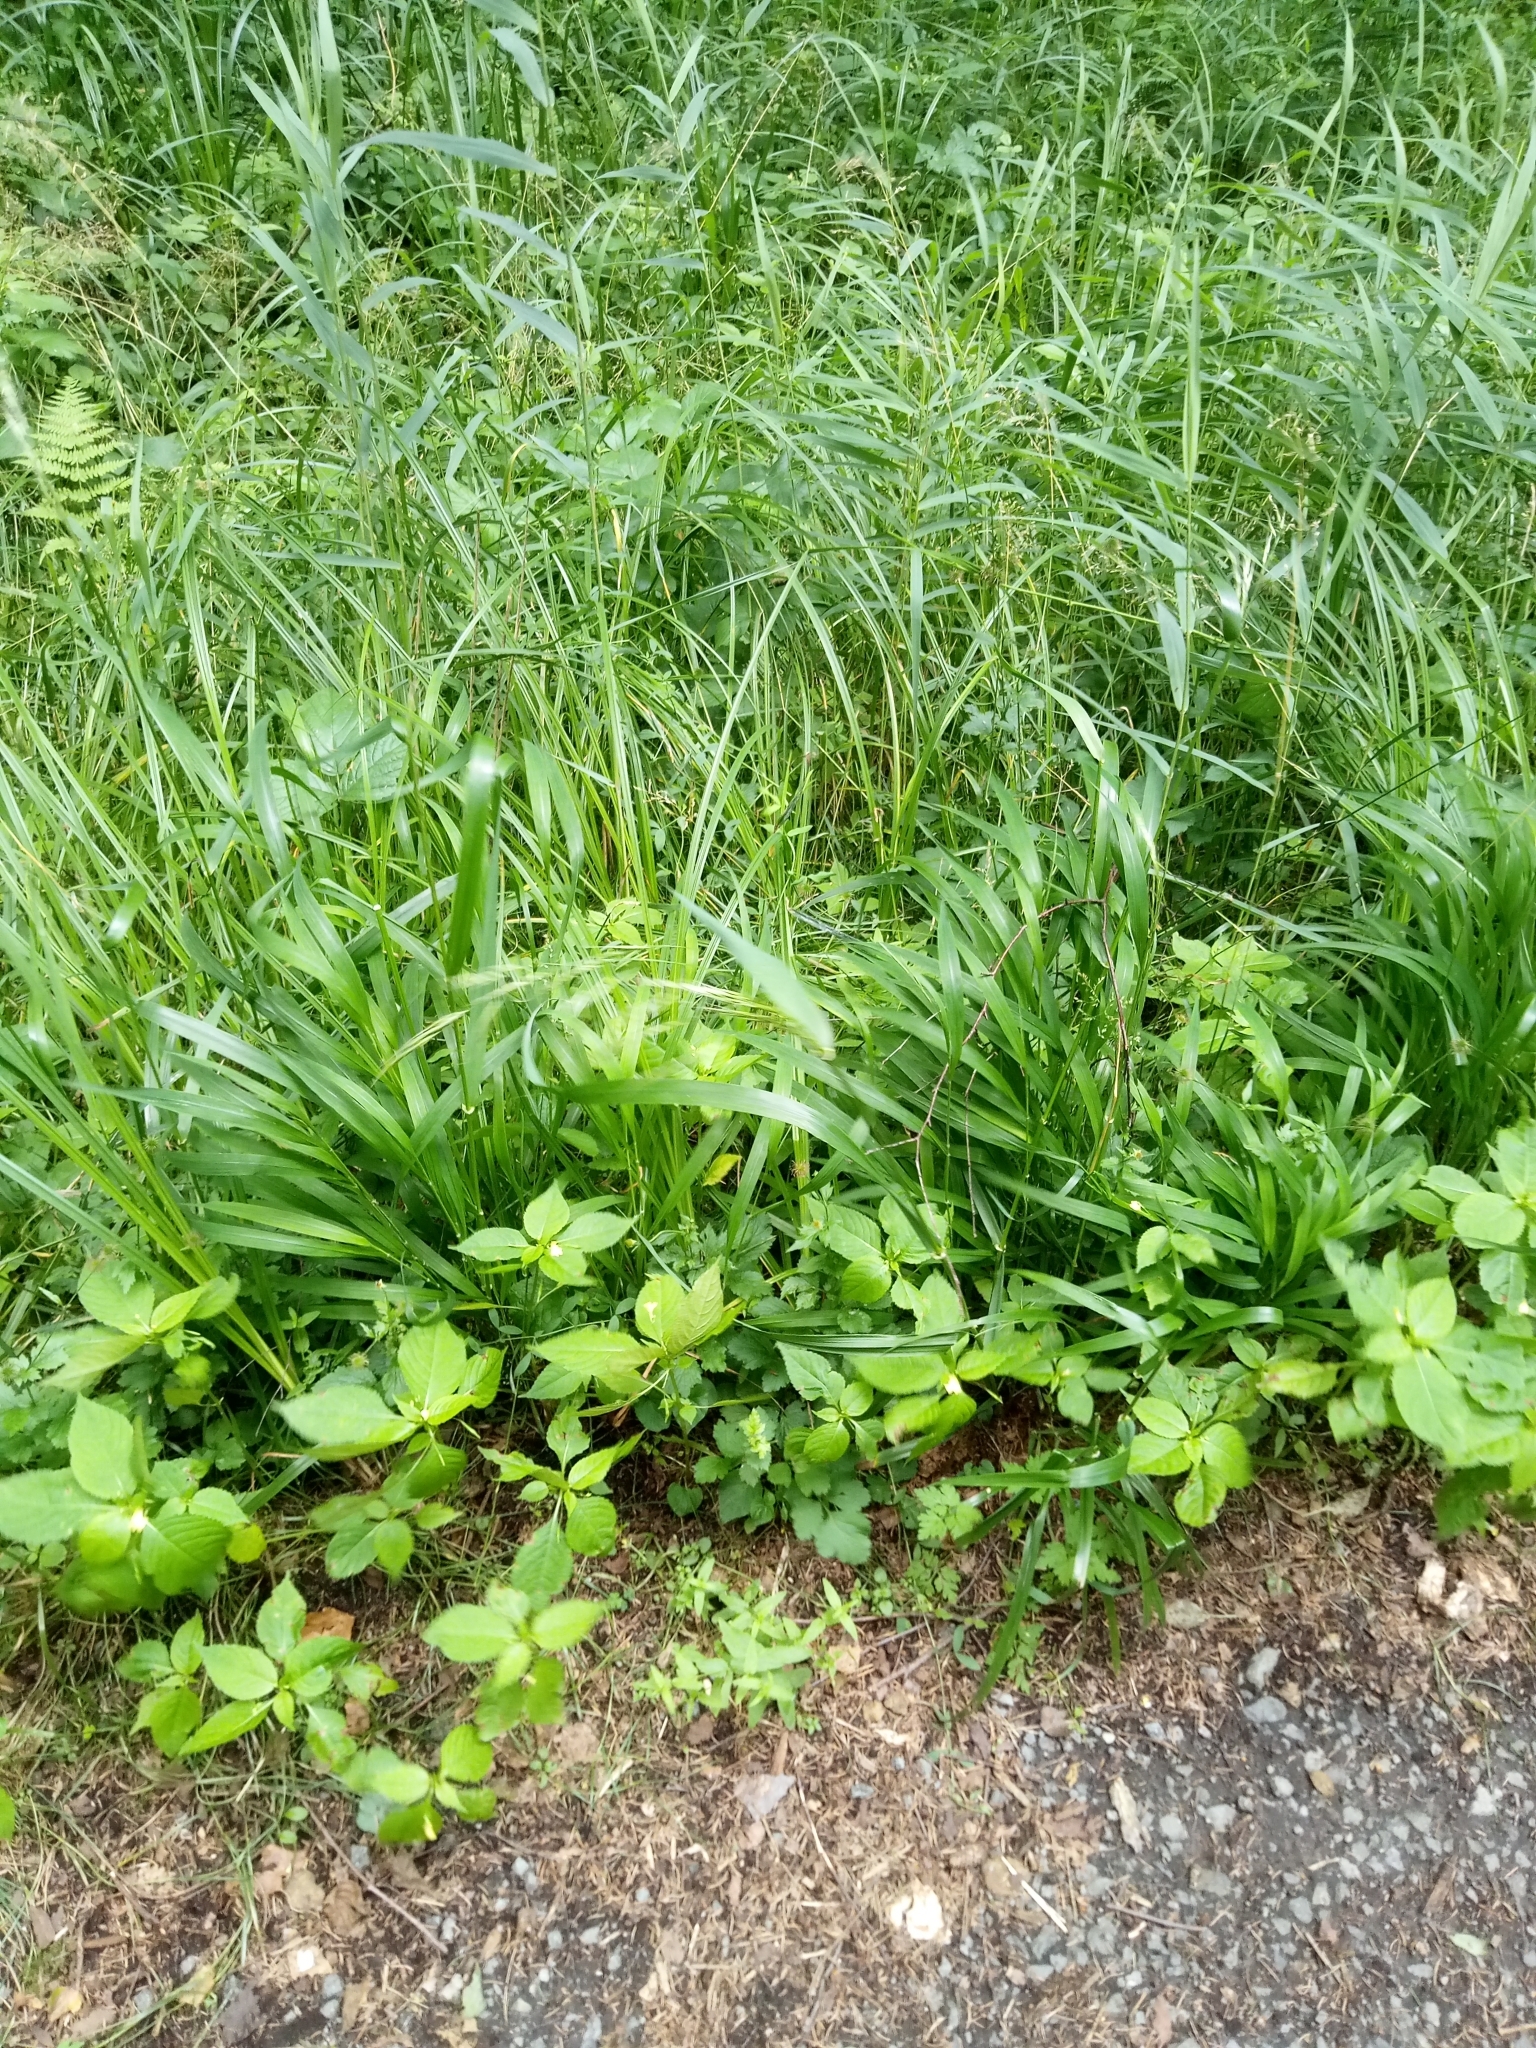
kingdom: Plantae
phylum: Tracheophyta
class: Liliopsida
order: Poales
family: Poaceae
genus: Lolium
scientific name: Lolium giganteum
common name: Giant fescue
